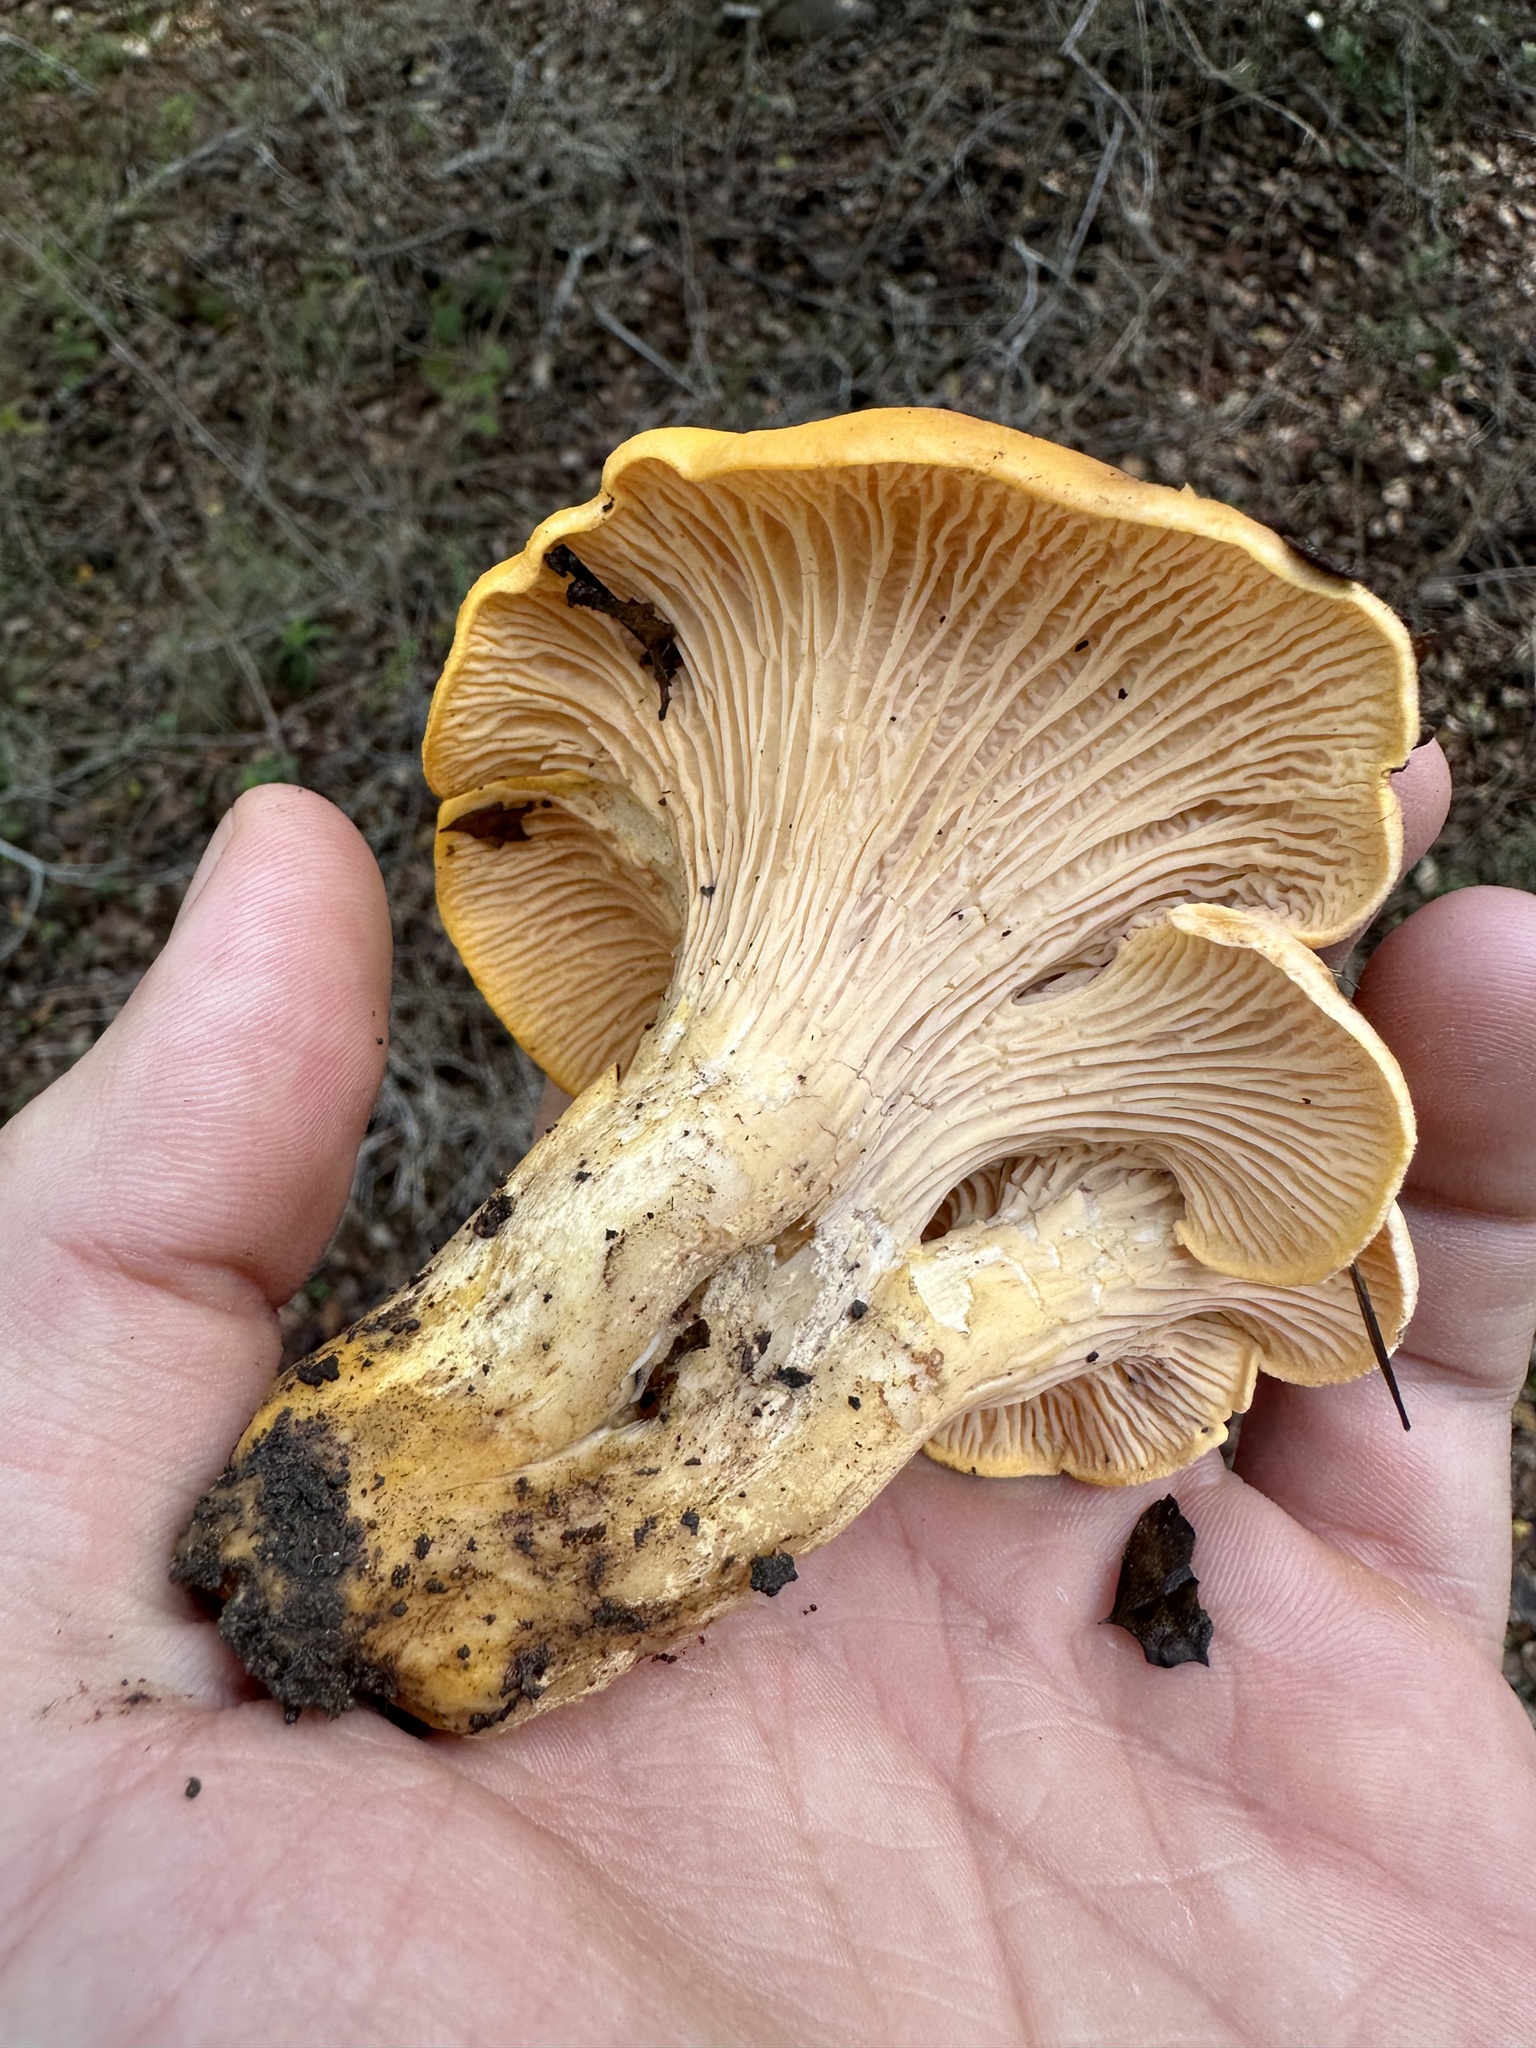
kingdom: Fungi
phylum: Basidiomycota
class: Agaricomycetes
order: Cantharellales
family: Hydnaceae
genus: Cantharellus
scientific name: Cantharellus californicus
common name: California golden chanterelle
